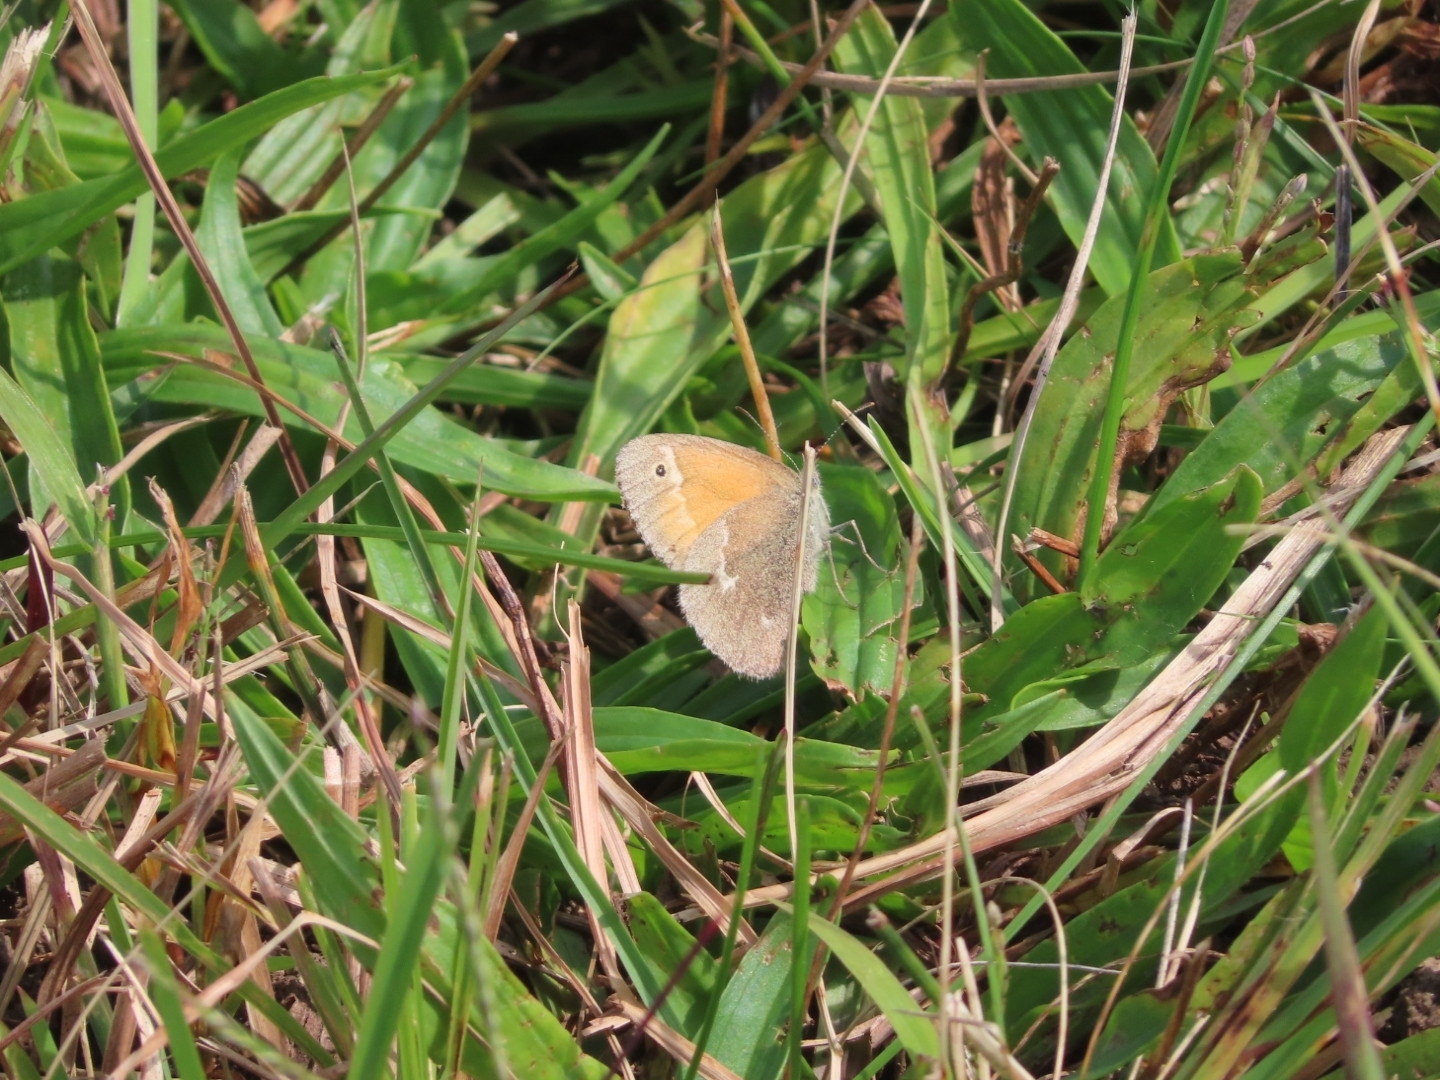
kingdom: Animalia
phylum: Arthropoda
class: Insecta
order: Lepidoptera
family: Nymphalidae
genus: Coenonympha
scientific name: Coenonympha california
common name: Common ringlet
